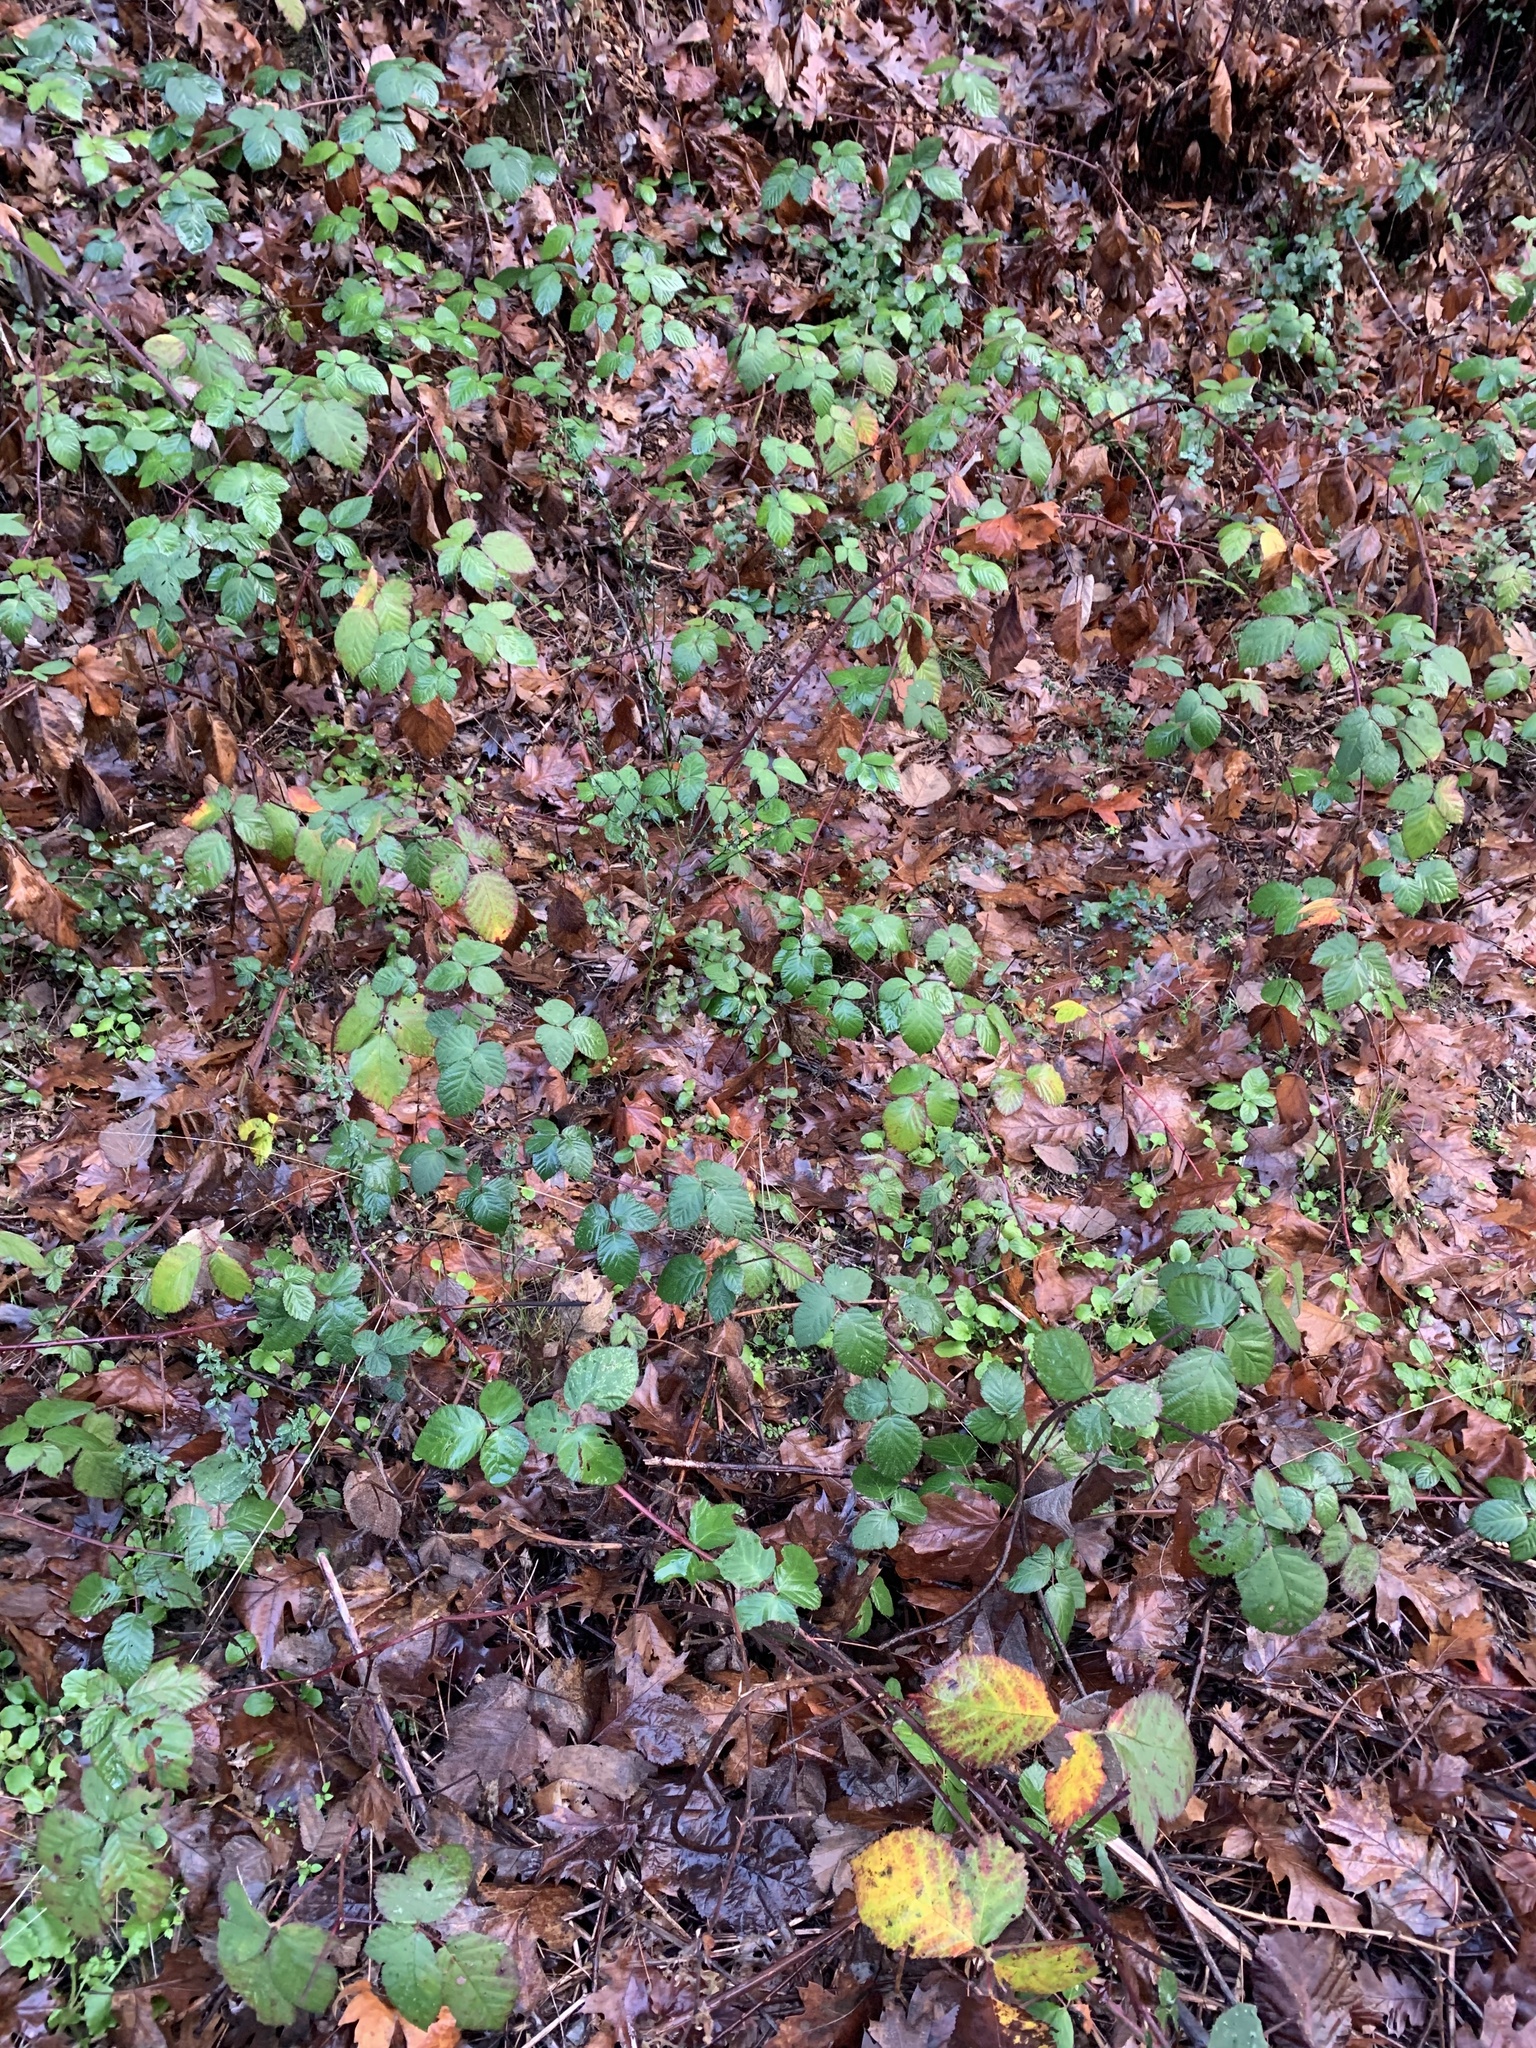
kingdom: Plantae
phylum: Tracheophyta
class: Magnoliopsida
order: Rosales
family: Rosaceae
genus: Rubus
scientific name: Rubus armeniacus
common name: Himalayan blackberry
